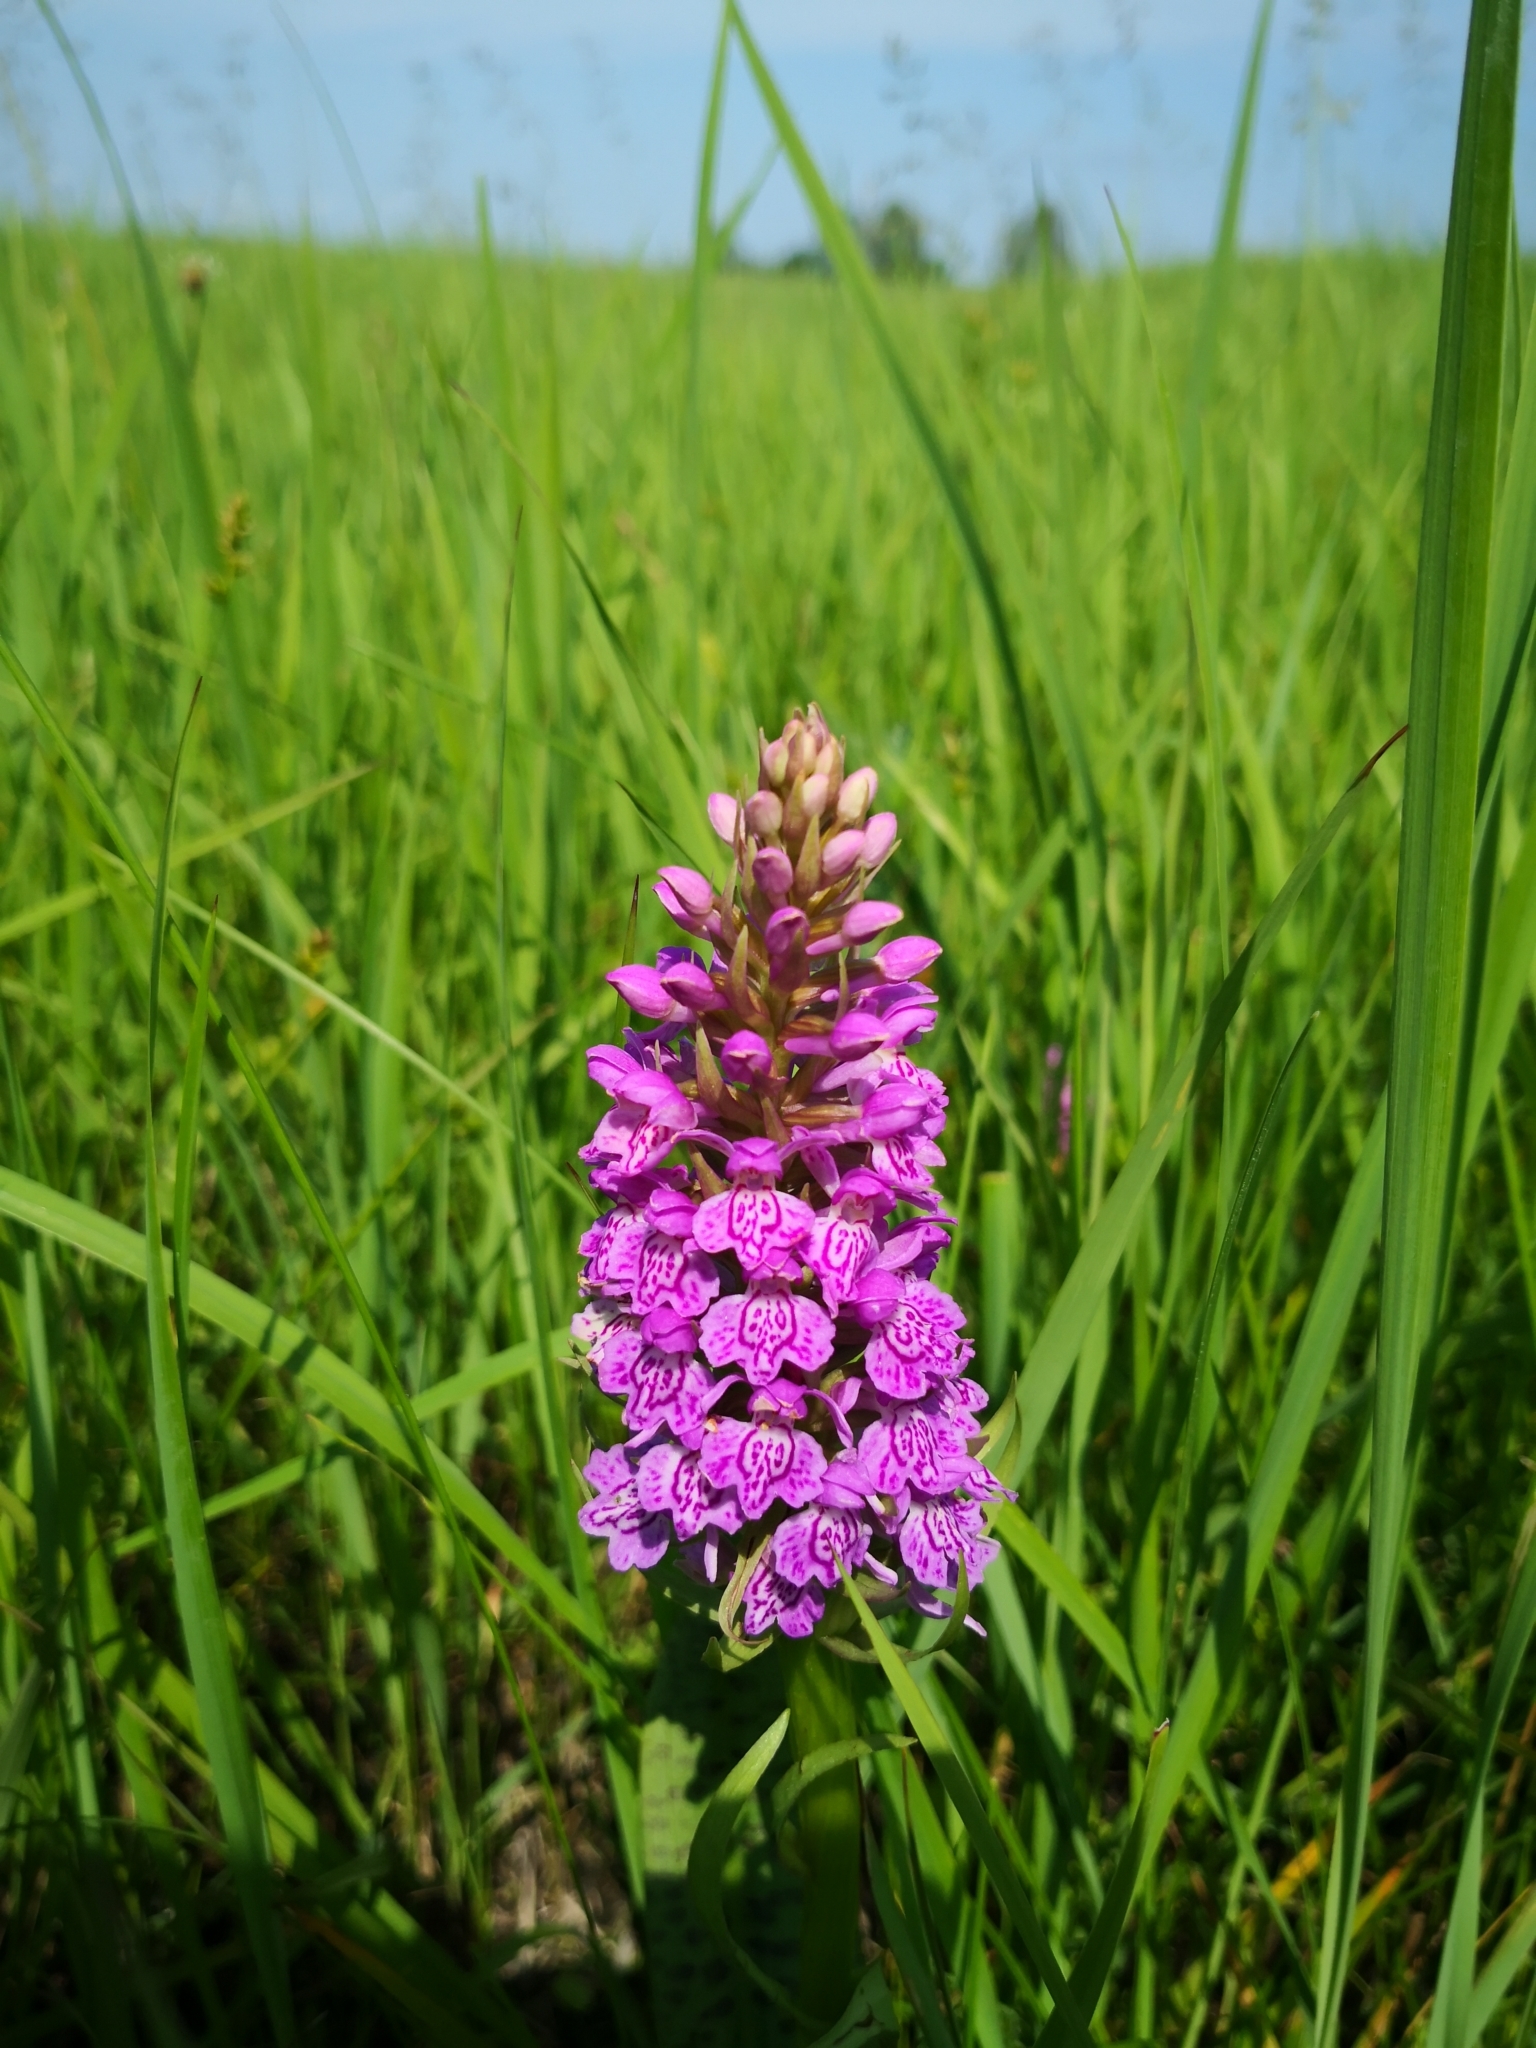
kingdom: Plantae
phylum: Tracheophyta
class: Liliopsida
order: Asparagales
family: Orchidaceae
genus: Dactylorhiza
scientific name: Dactylorhiza majalis
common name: Marsh orchid
